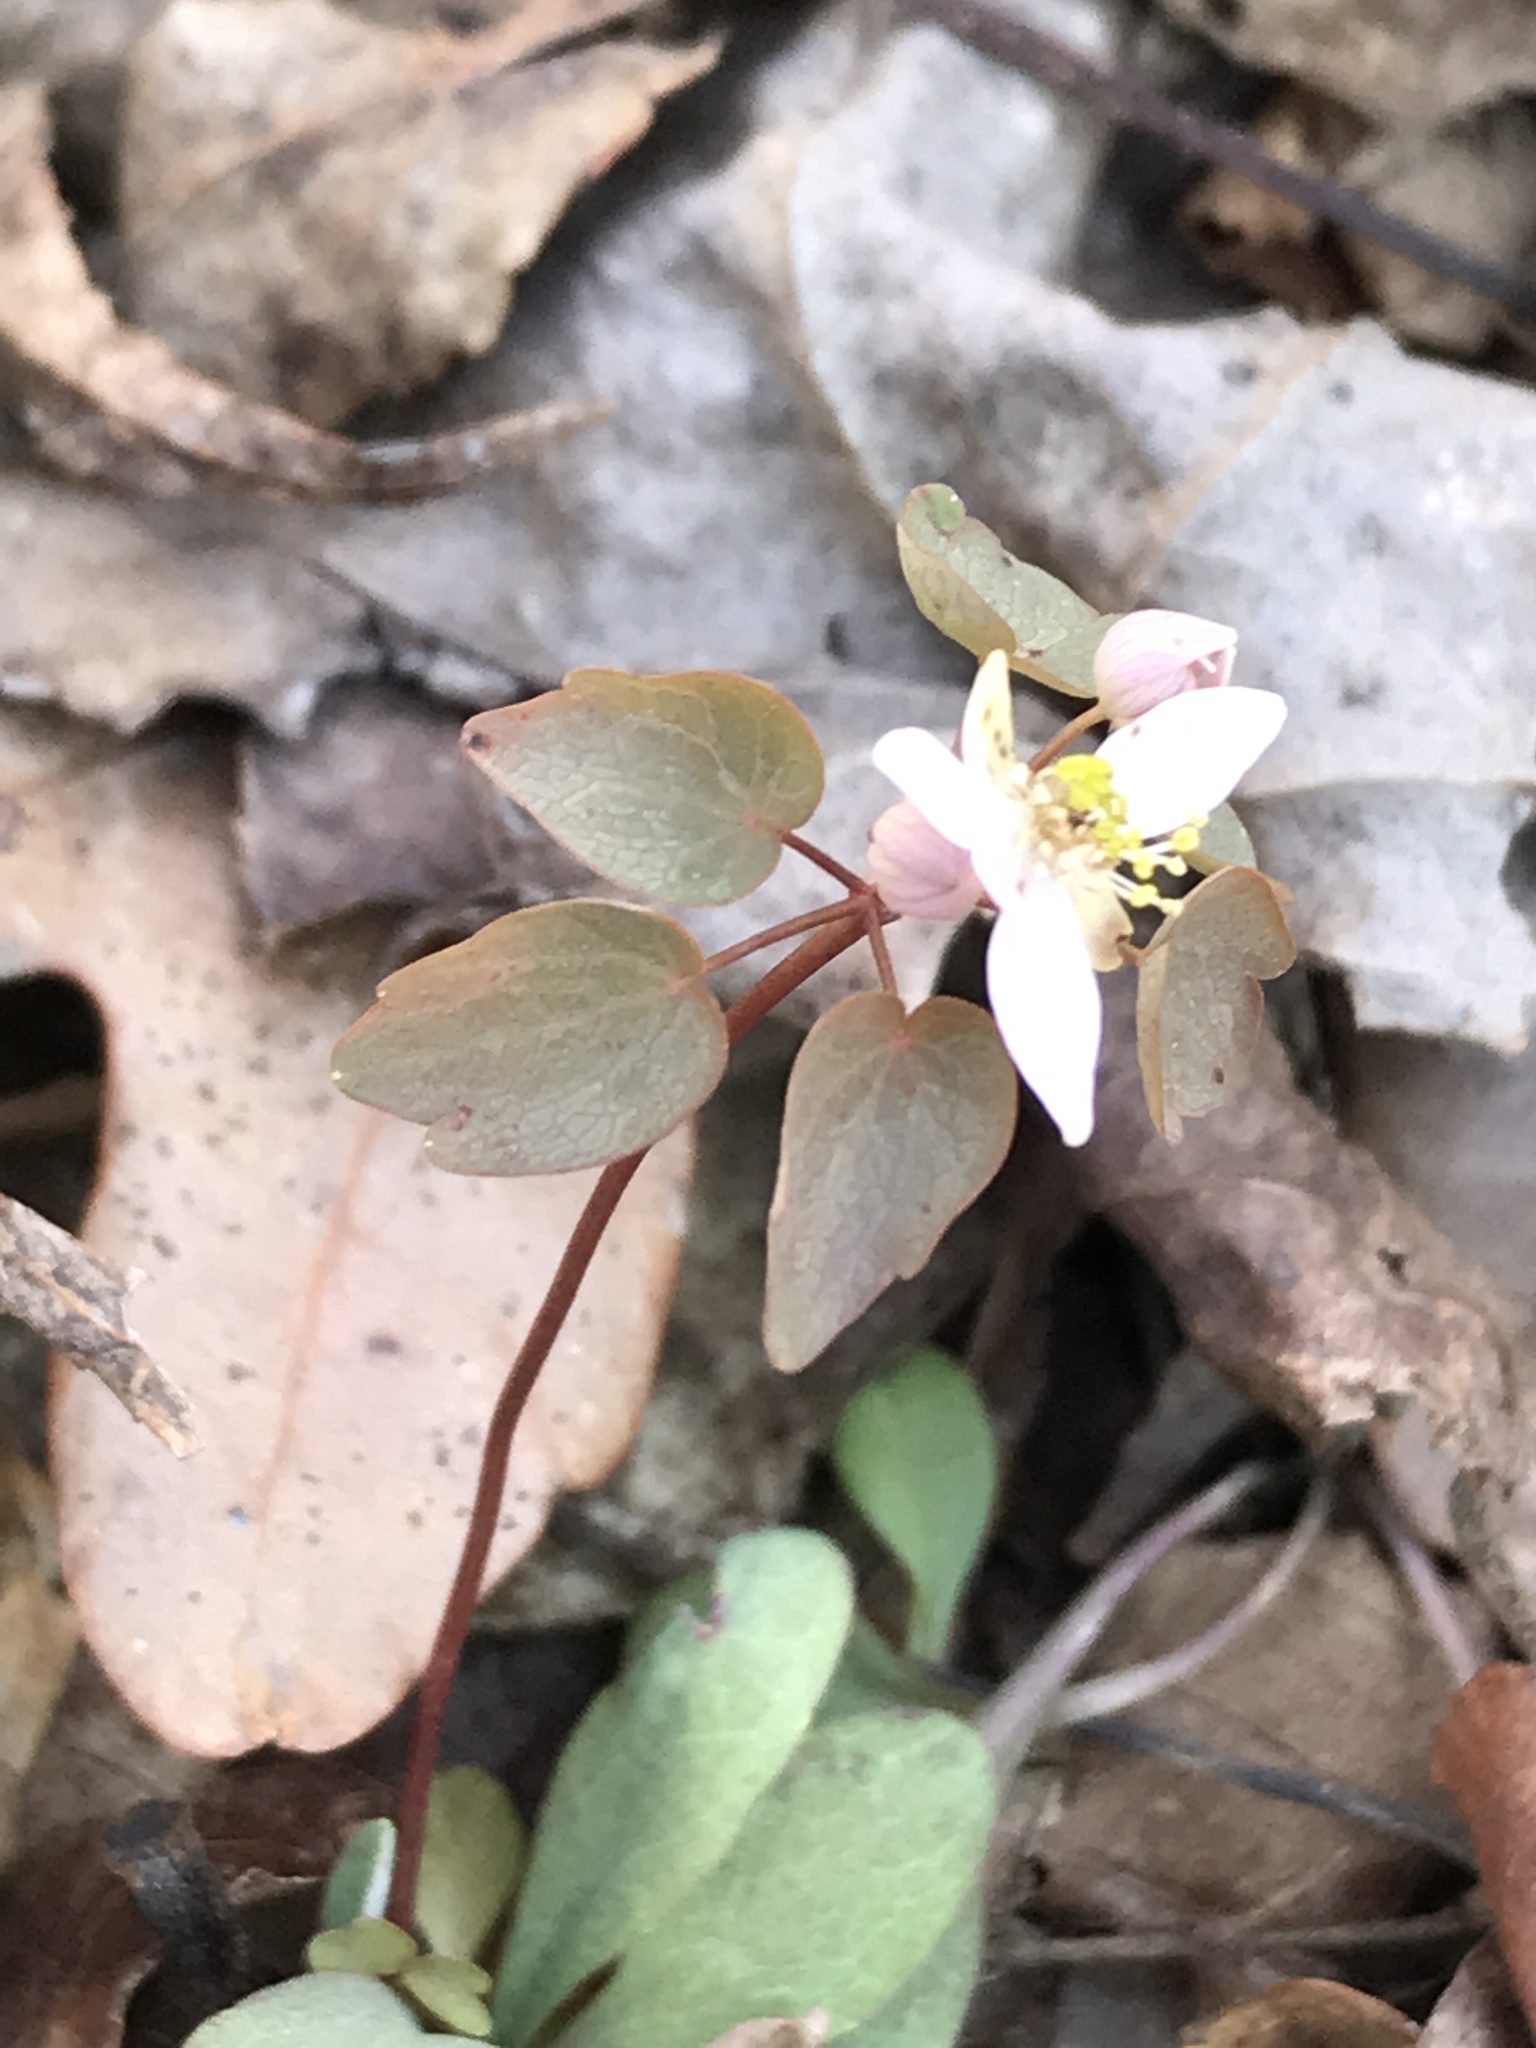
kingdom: Plantae
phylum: Tracheophyta
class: Magnoliopsida
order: Ranunculales
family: Ranunculaceae
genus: Thalictrum
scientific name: Thalictrum thalictroides
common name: Rue-anemone
